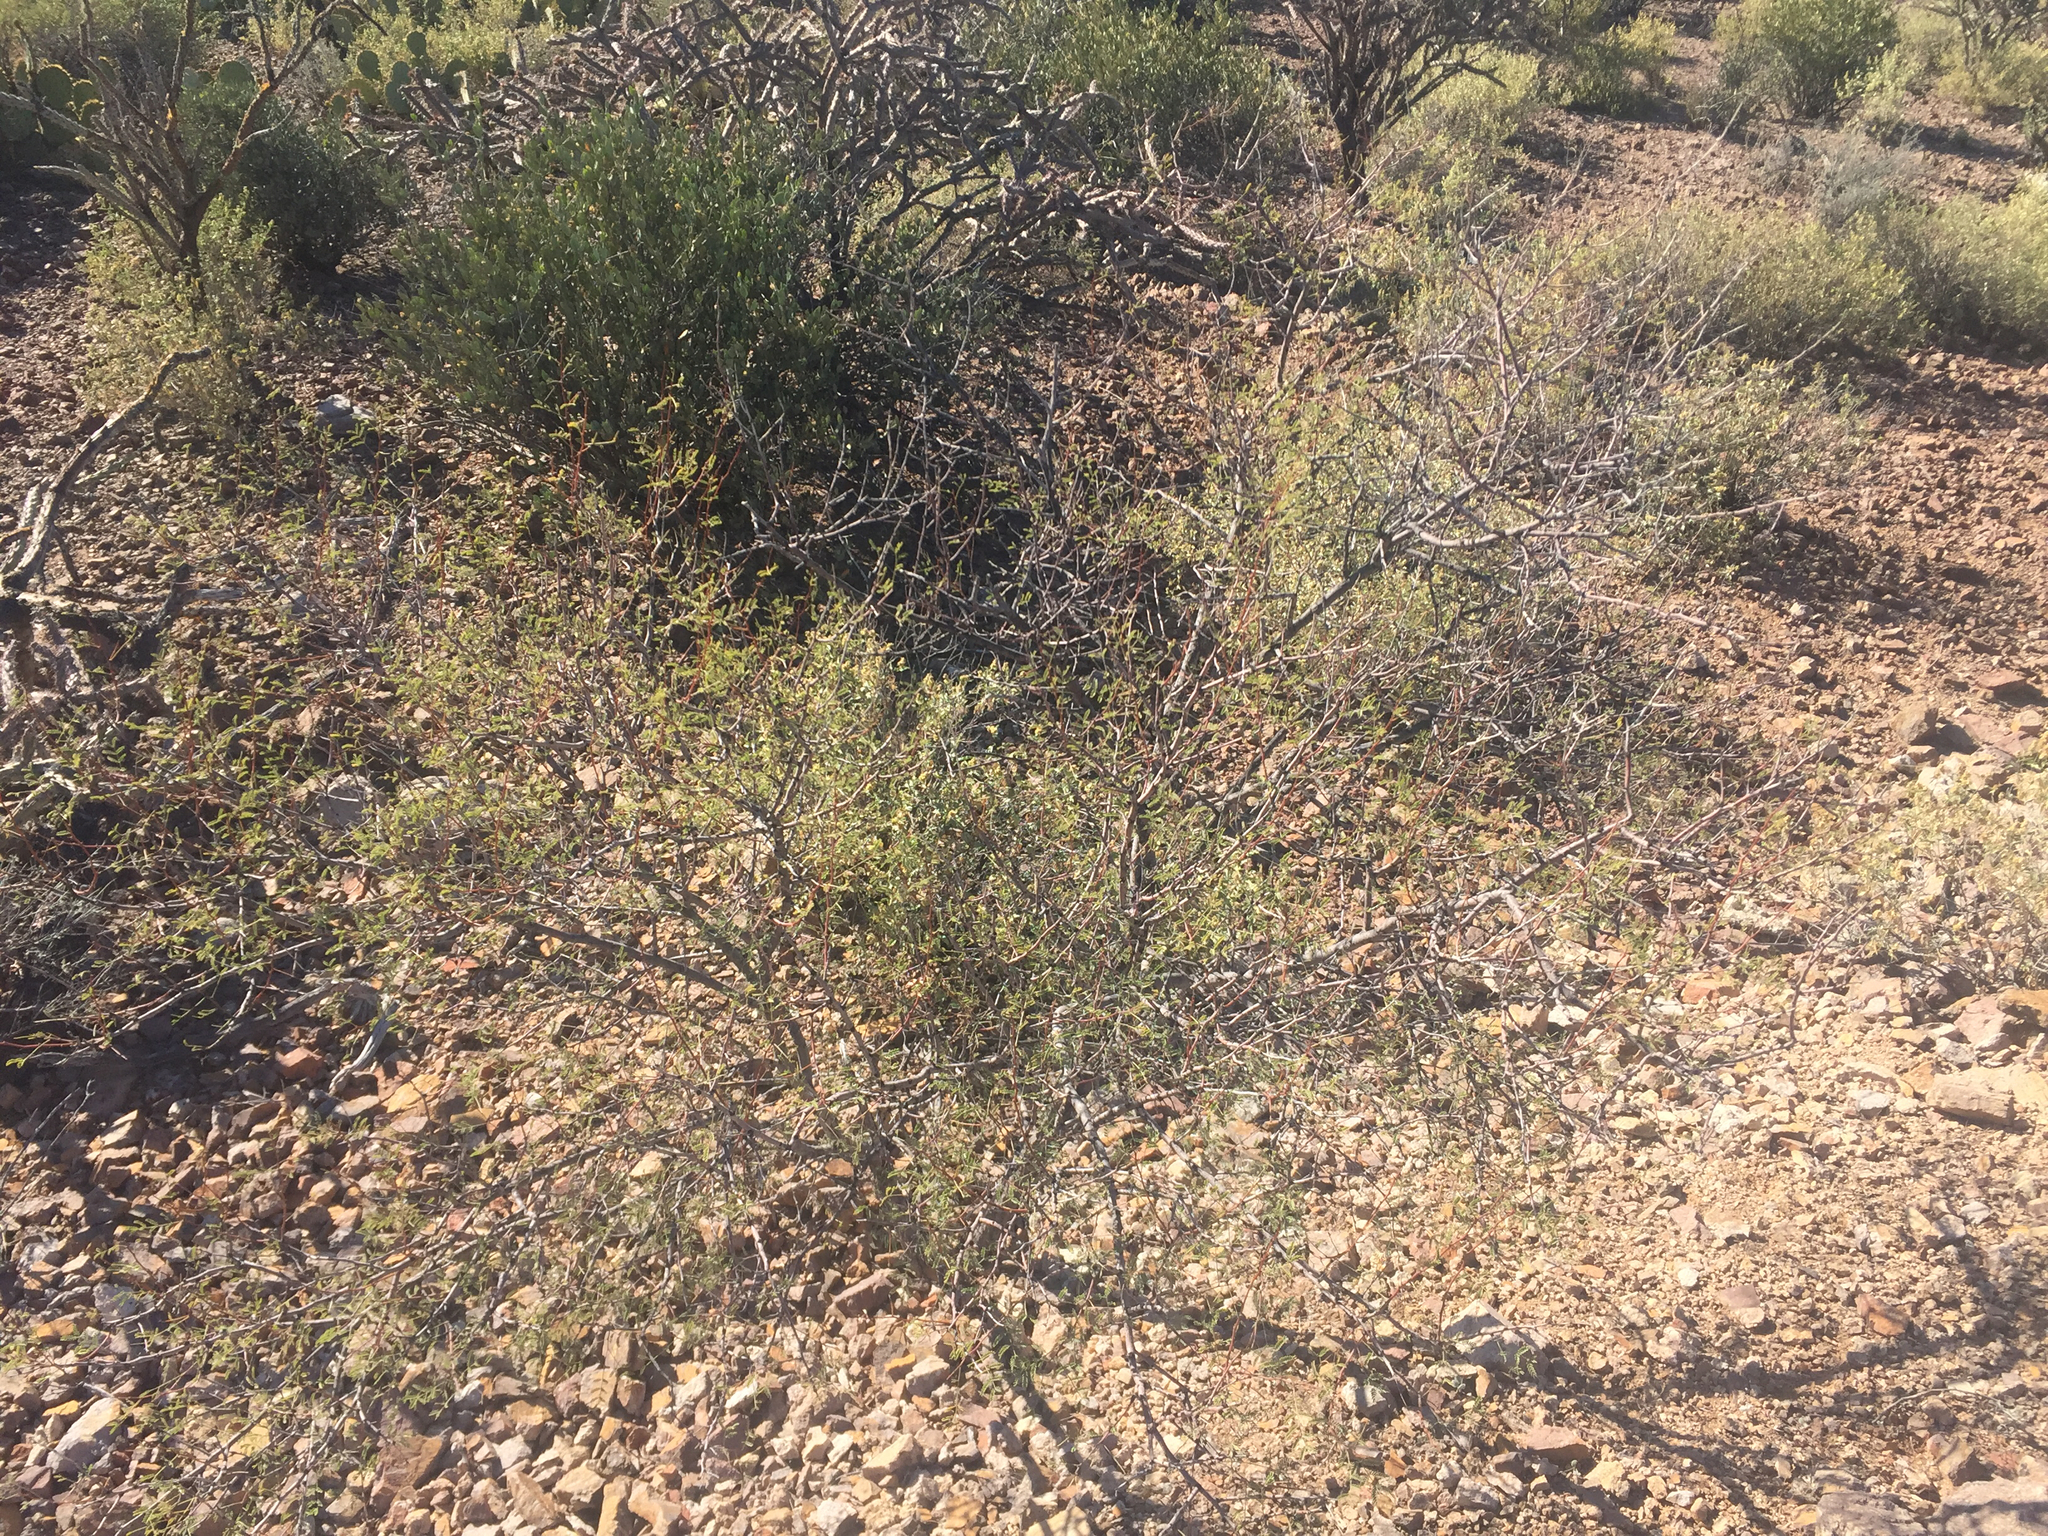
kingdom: Plantae
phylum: Tracheophyta
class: Magnoliopsida
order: Fabales
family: Fabaceae
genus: Vachellia
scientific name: Vachellia constricta
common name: Mescat acacia
